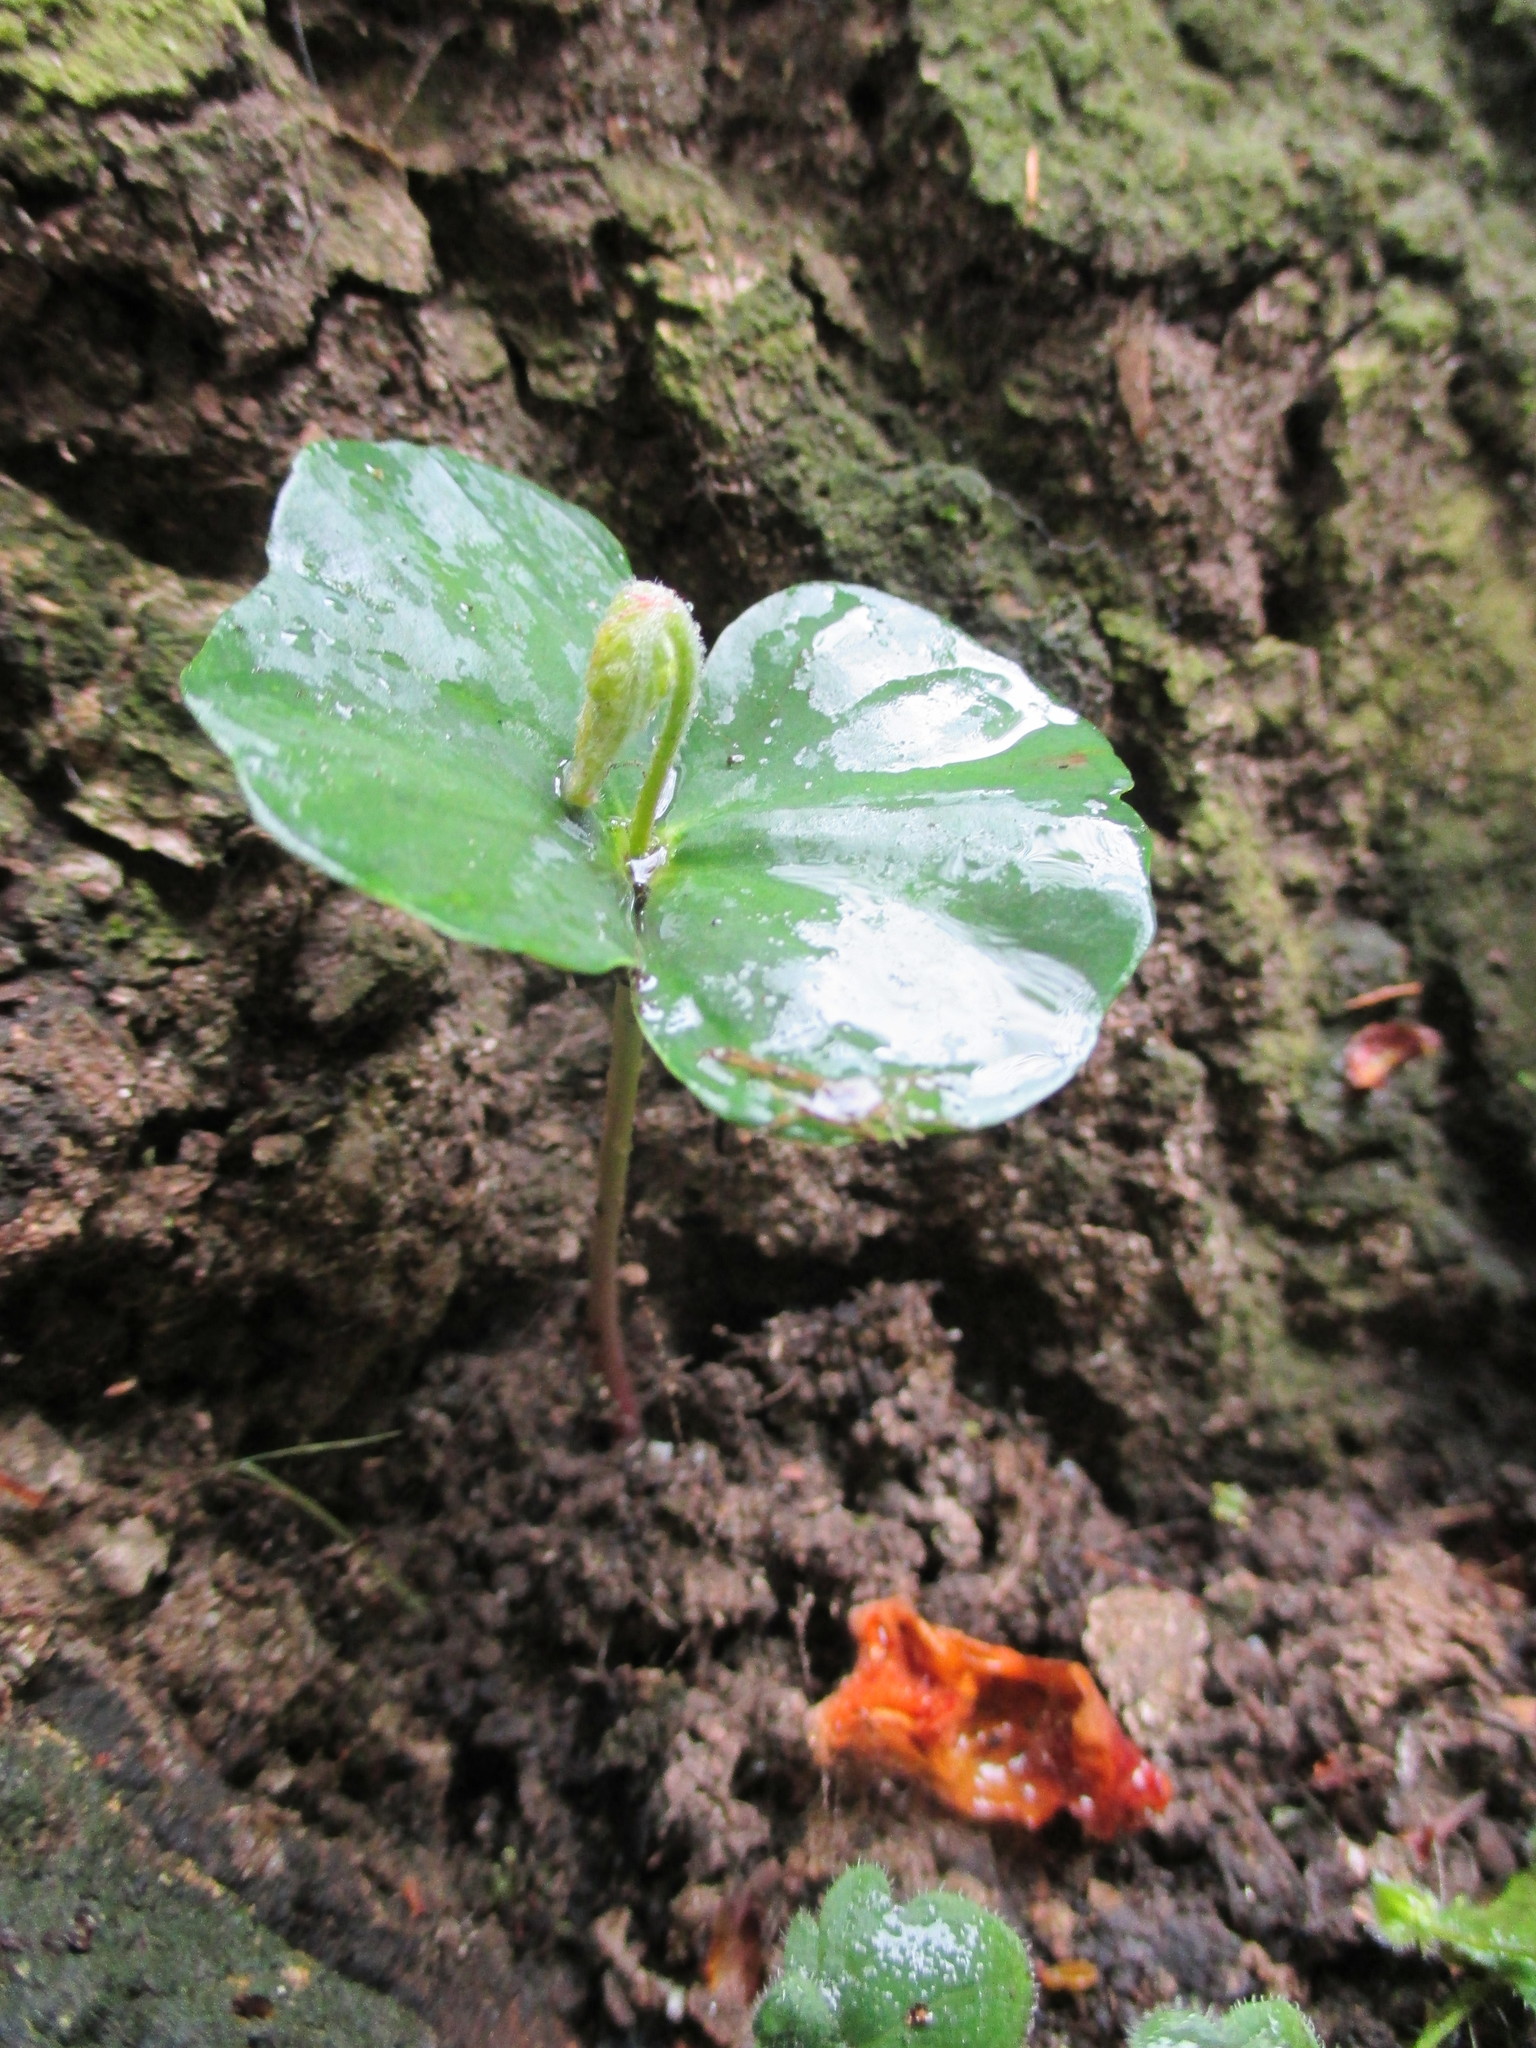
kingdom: Plantae
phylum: Tracheophyta
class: Magnoliopsida
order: Fagales
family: Fagaceae
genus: Fagus
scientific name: Fagus sylvatica
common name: Beech
